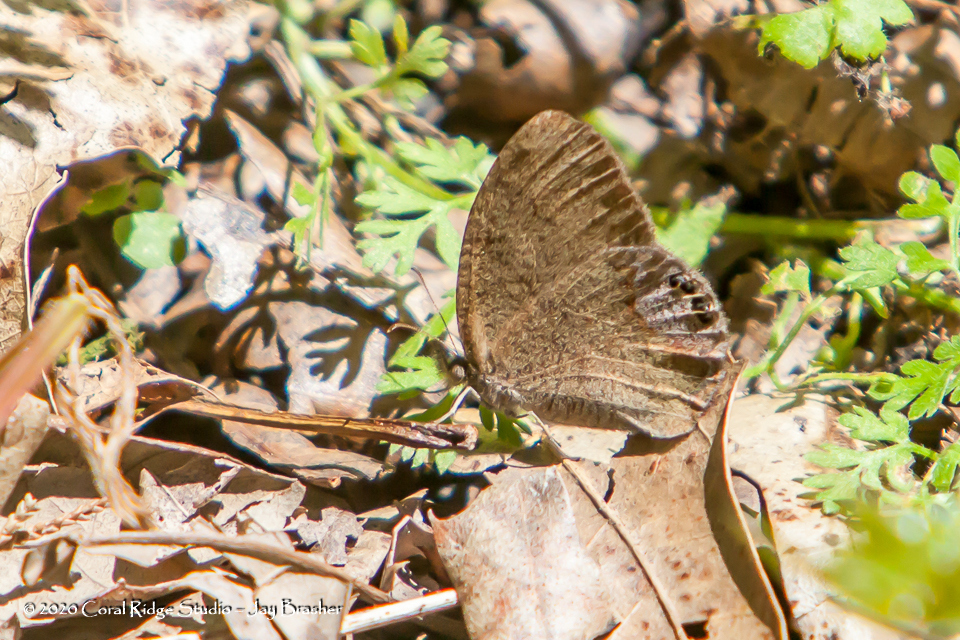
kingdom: Animalia
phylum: Arthropoda
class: Insecta
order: Lepidoptera
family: Nymphalidae
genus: Euptychia
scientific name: Euptychia cornelius
